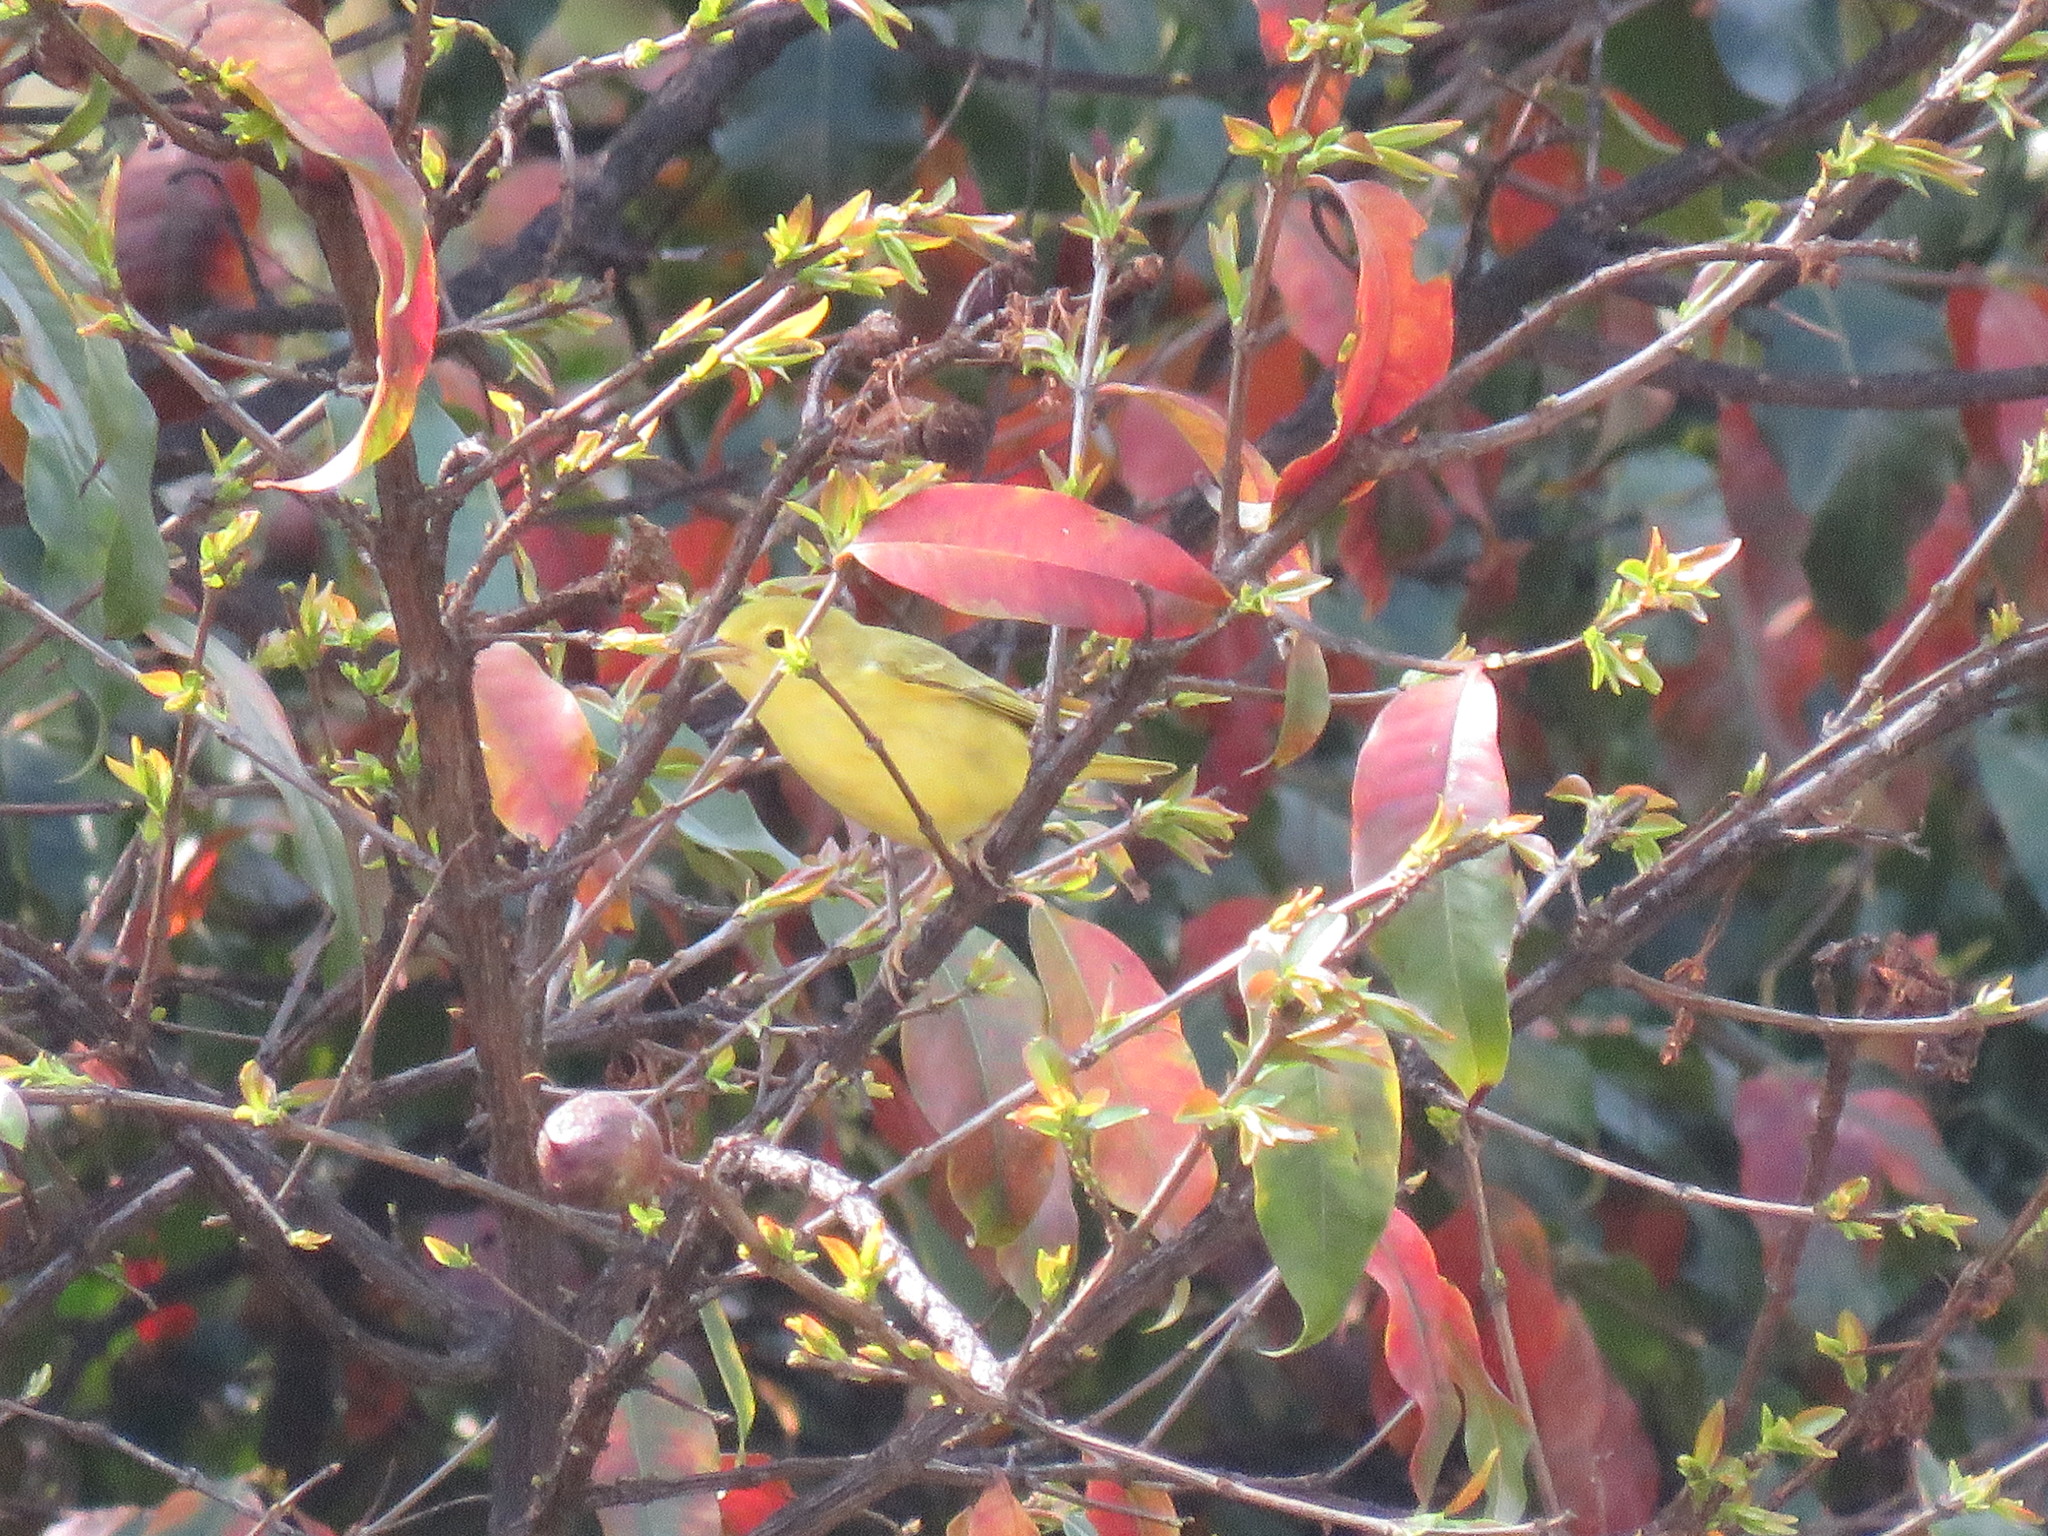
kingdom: Animalia
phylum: Chordata
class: Aves
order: Passeriformes
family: Parulidae
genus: Setophaga
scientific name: Setophaga petechia
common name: Yellow warbler
